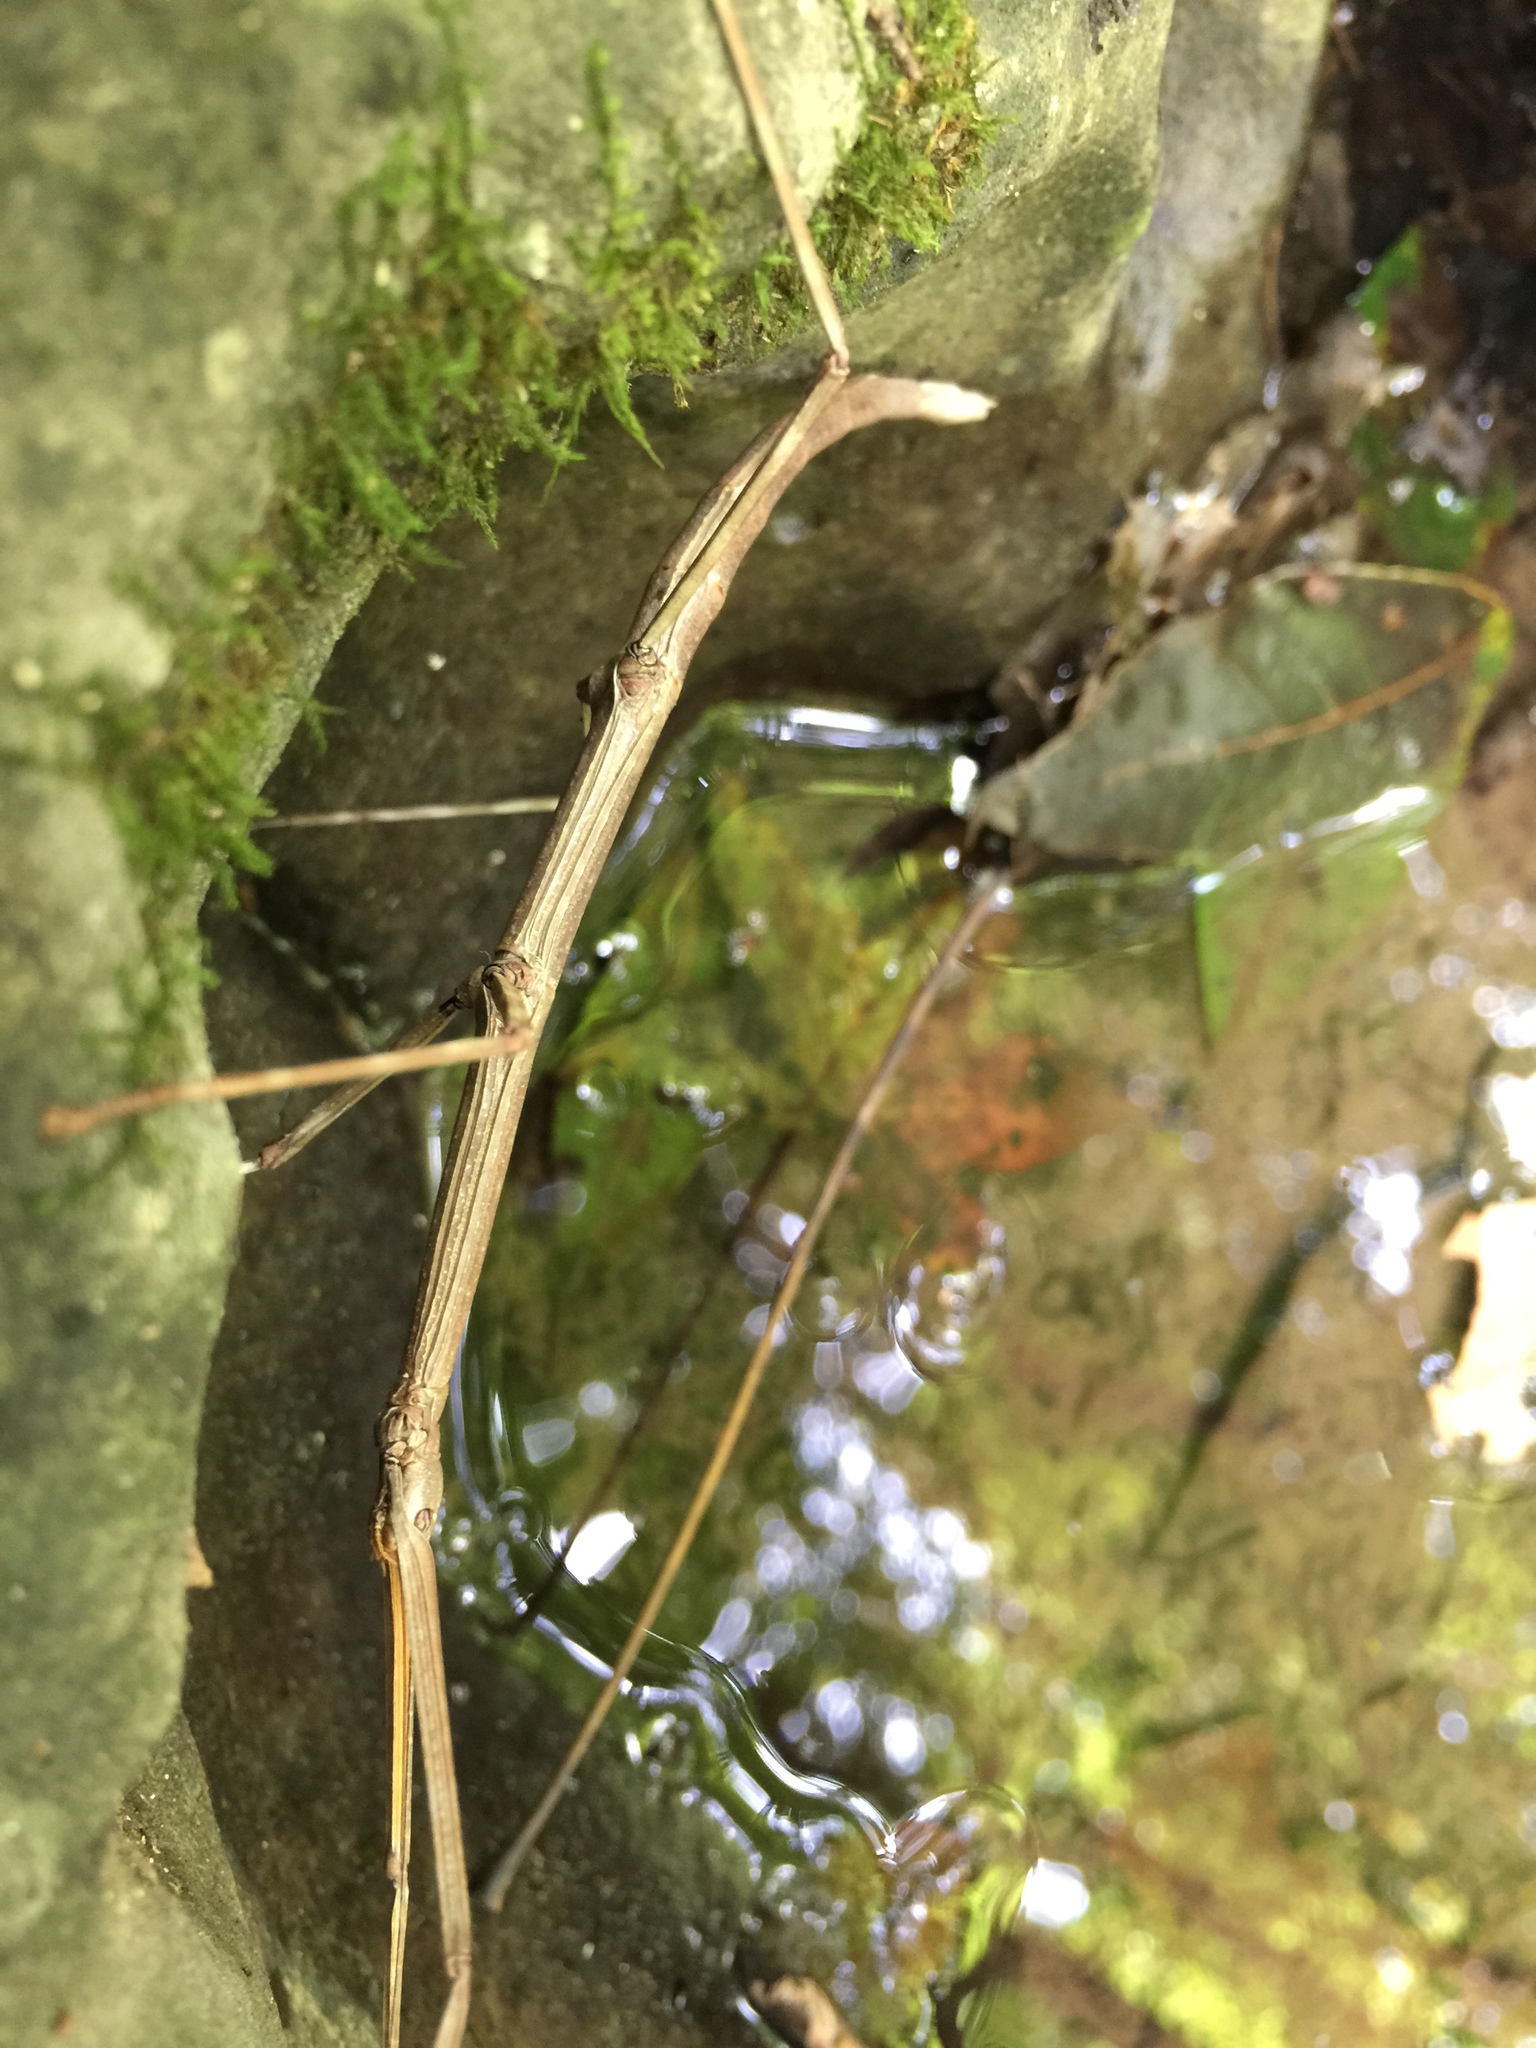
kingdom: Animalia
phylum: Arthropoda
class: Insecta
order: Phasmida
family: Diapheromeridae
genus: Diapheromera
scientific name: Diapheromera femorata
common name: Common american walkingstick
